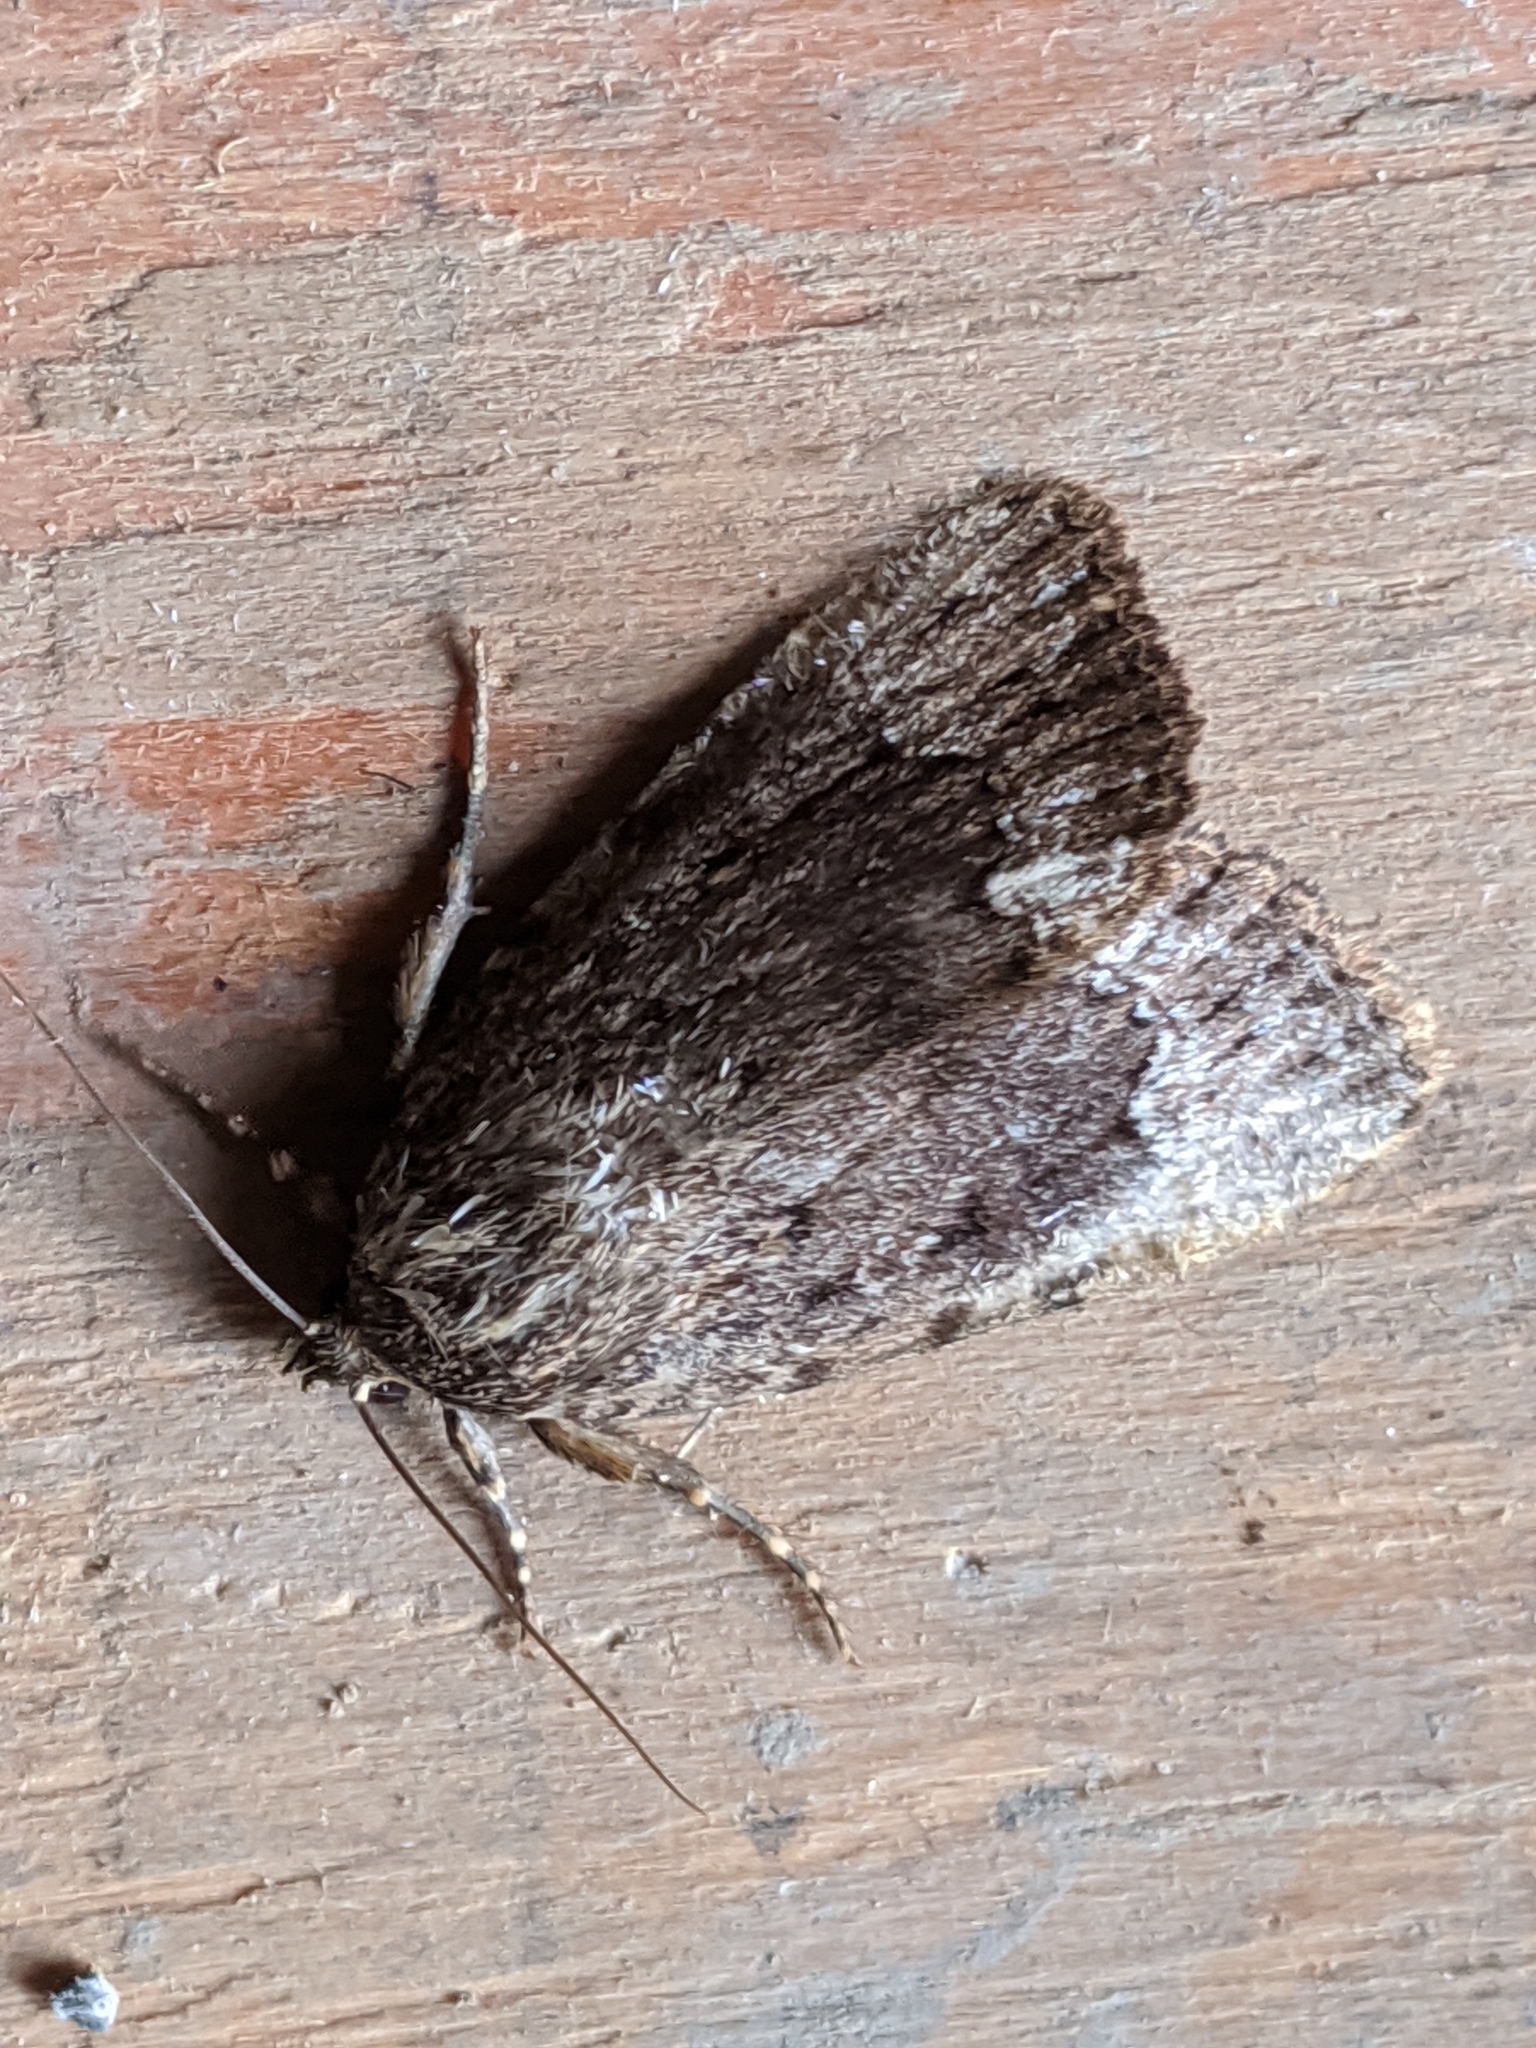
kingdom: Animalia
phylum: Arthropoda
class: Insecta
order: Lepidoptera
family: Noctuidae
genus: Amphipyra
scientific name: Amphipyra pyramidoides
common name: American copper underwing
